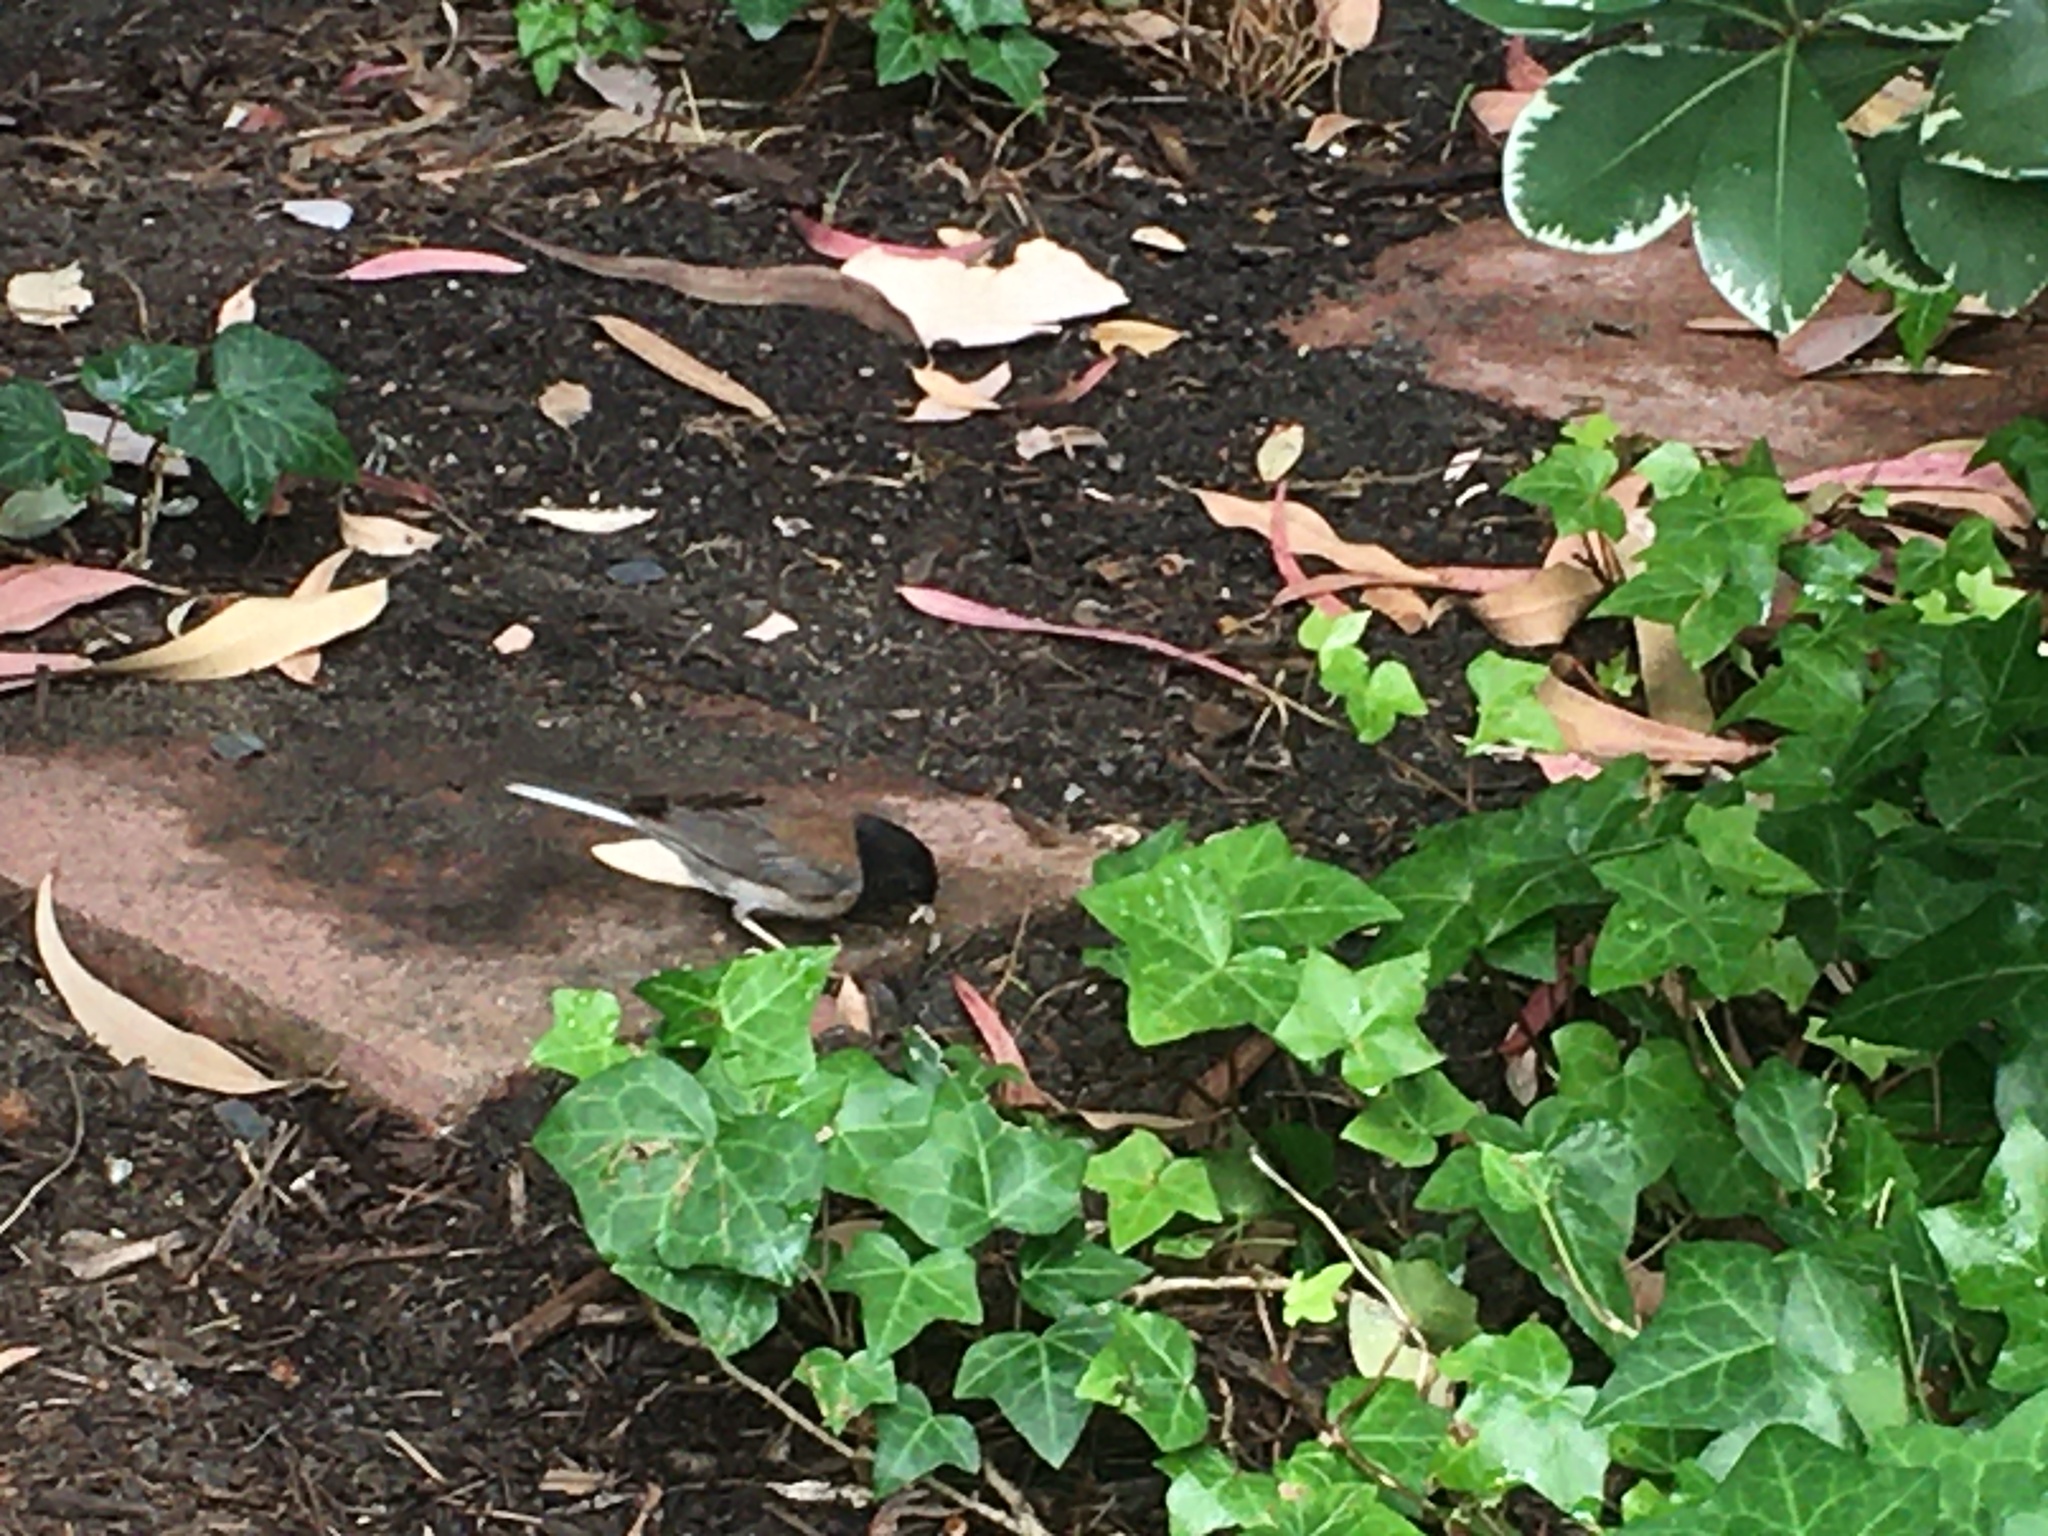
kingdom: Animalia
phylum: Chordata
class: Aves
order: Passeriformes
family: Passerellidae
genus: Junco
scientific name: Junco hyemalis
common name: Dark-eyed junco
